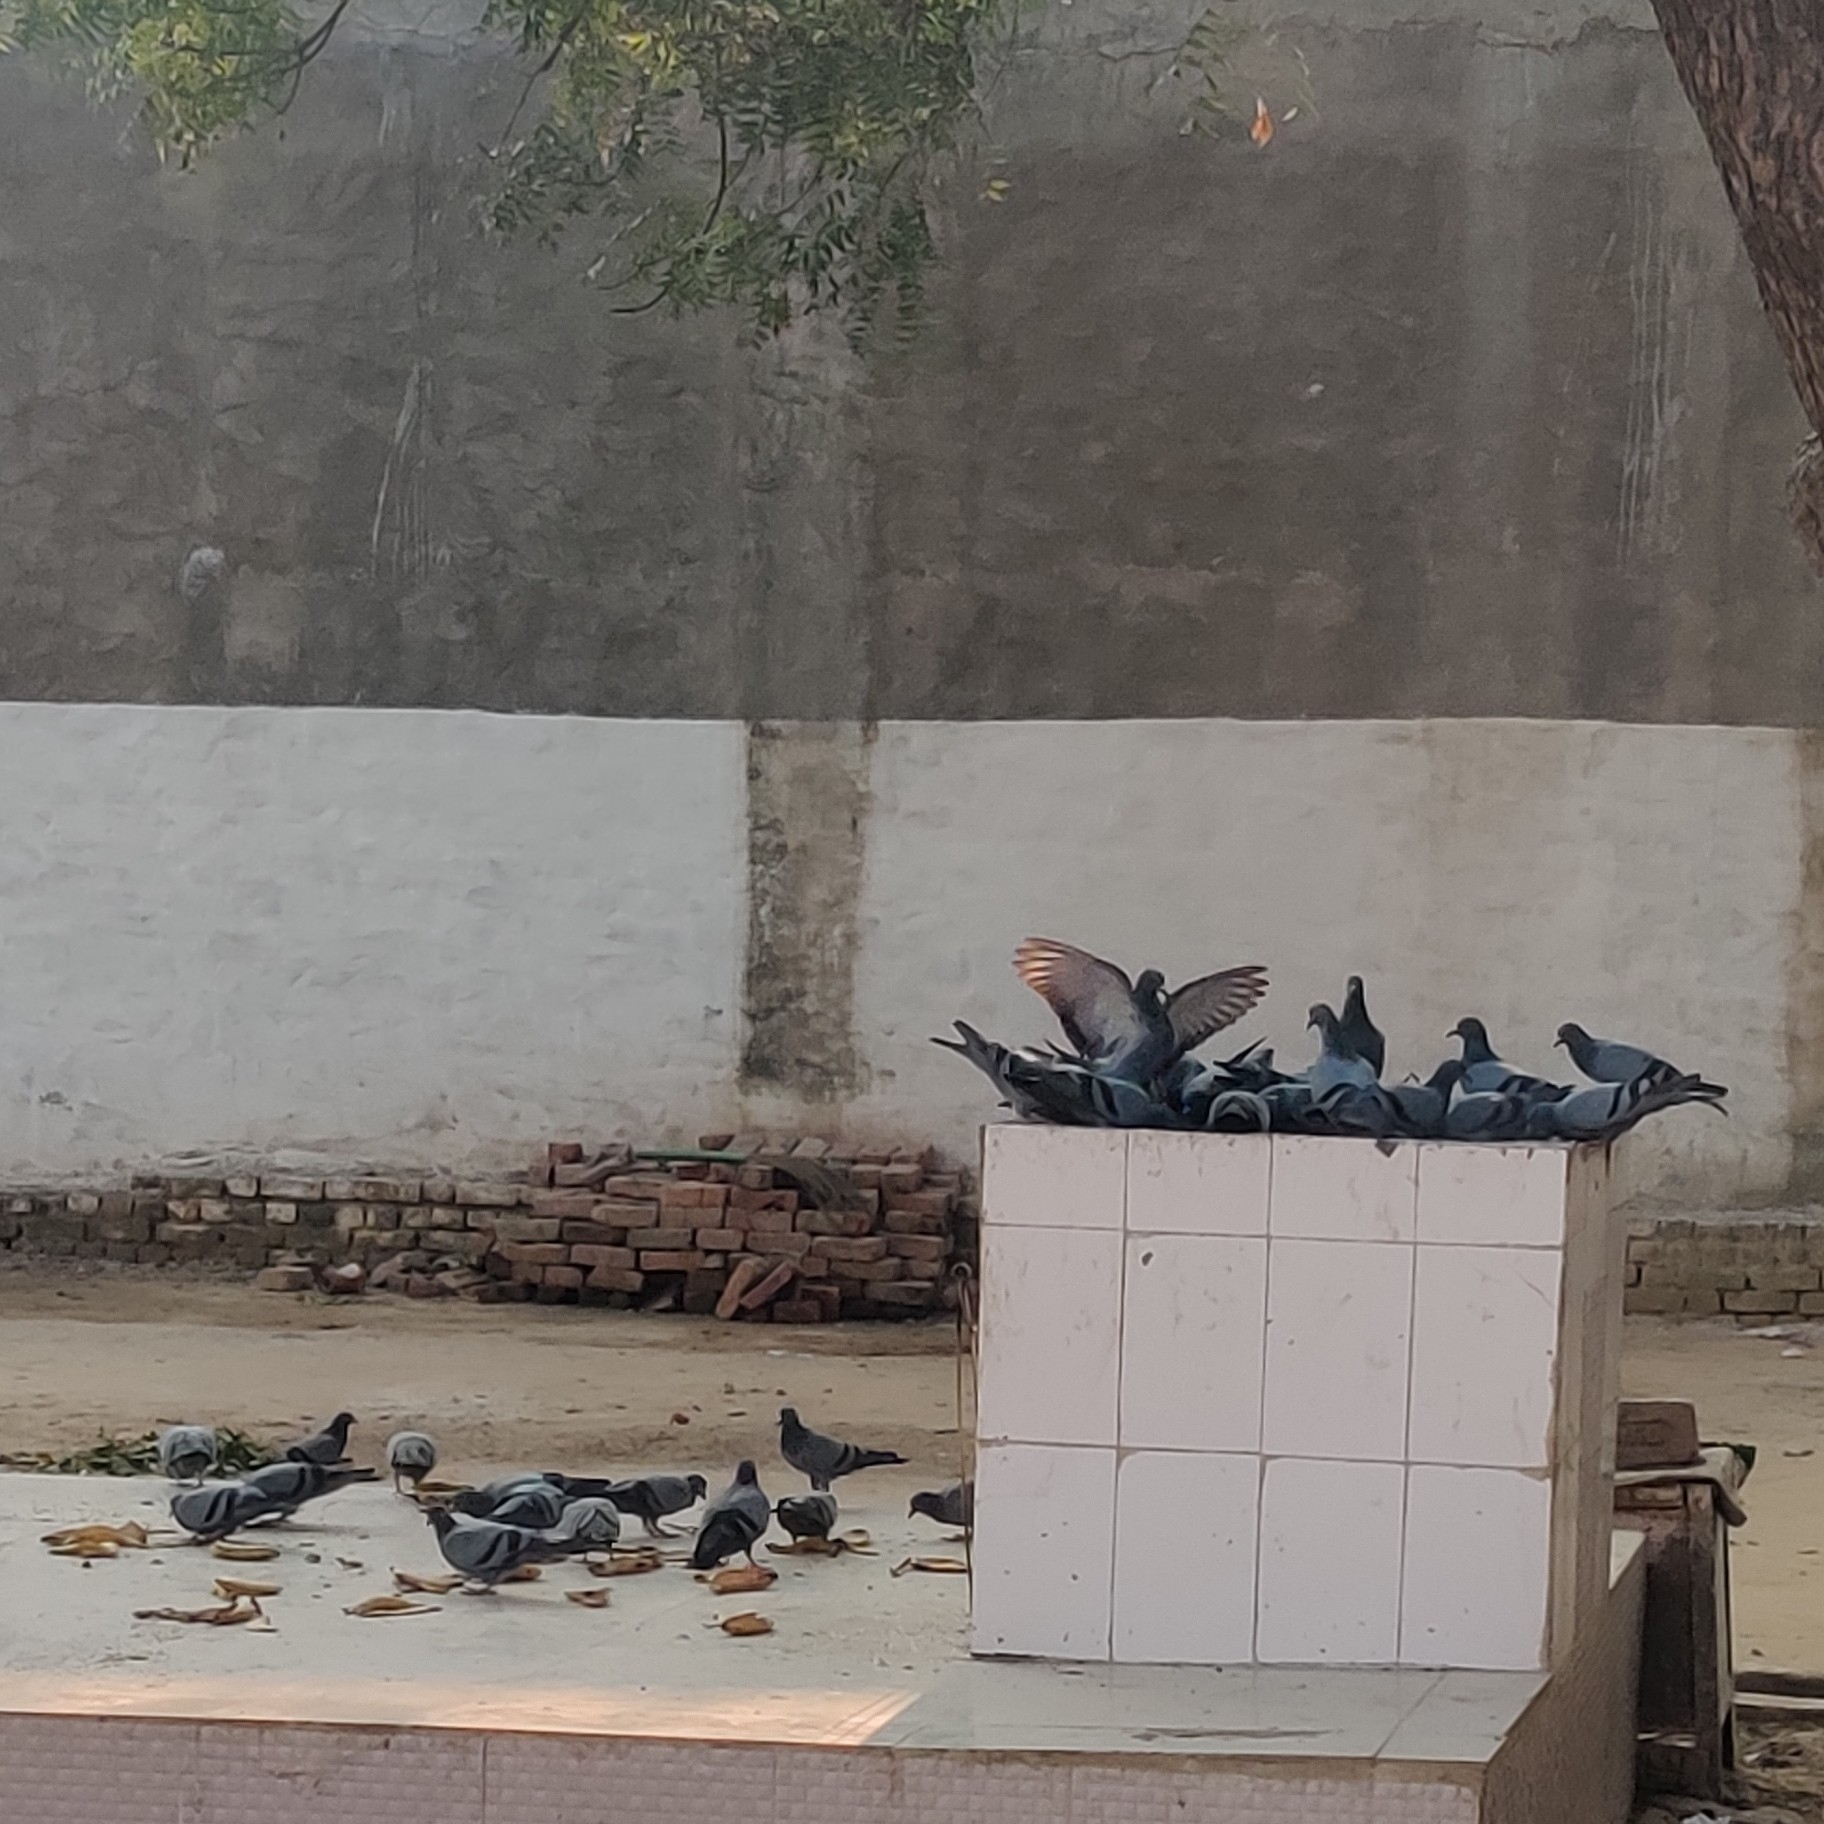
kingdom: Animalia
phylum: Chordata
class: Aves
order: Columbiformes
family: Columbidae
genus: Columba
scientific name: Columba livia
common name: Rock pigeon
